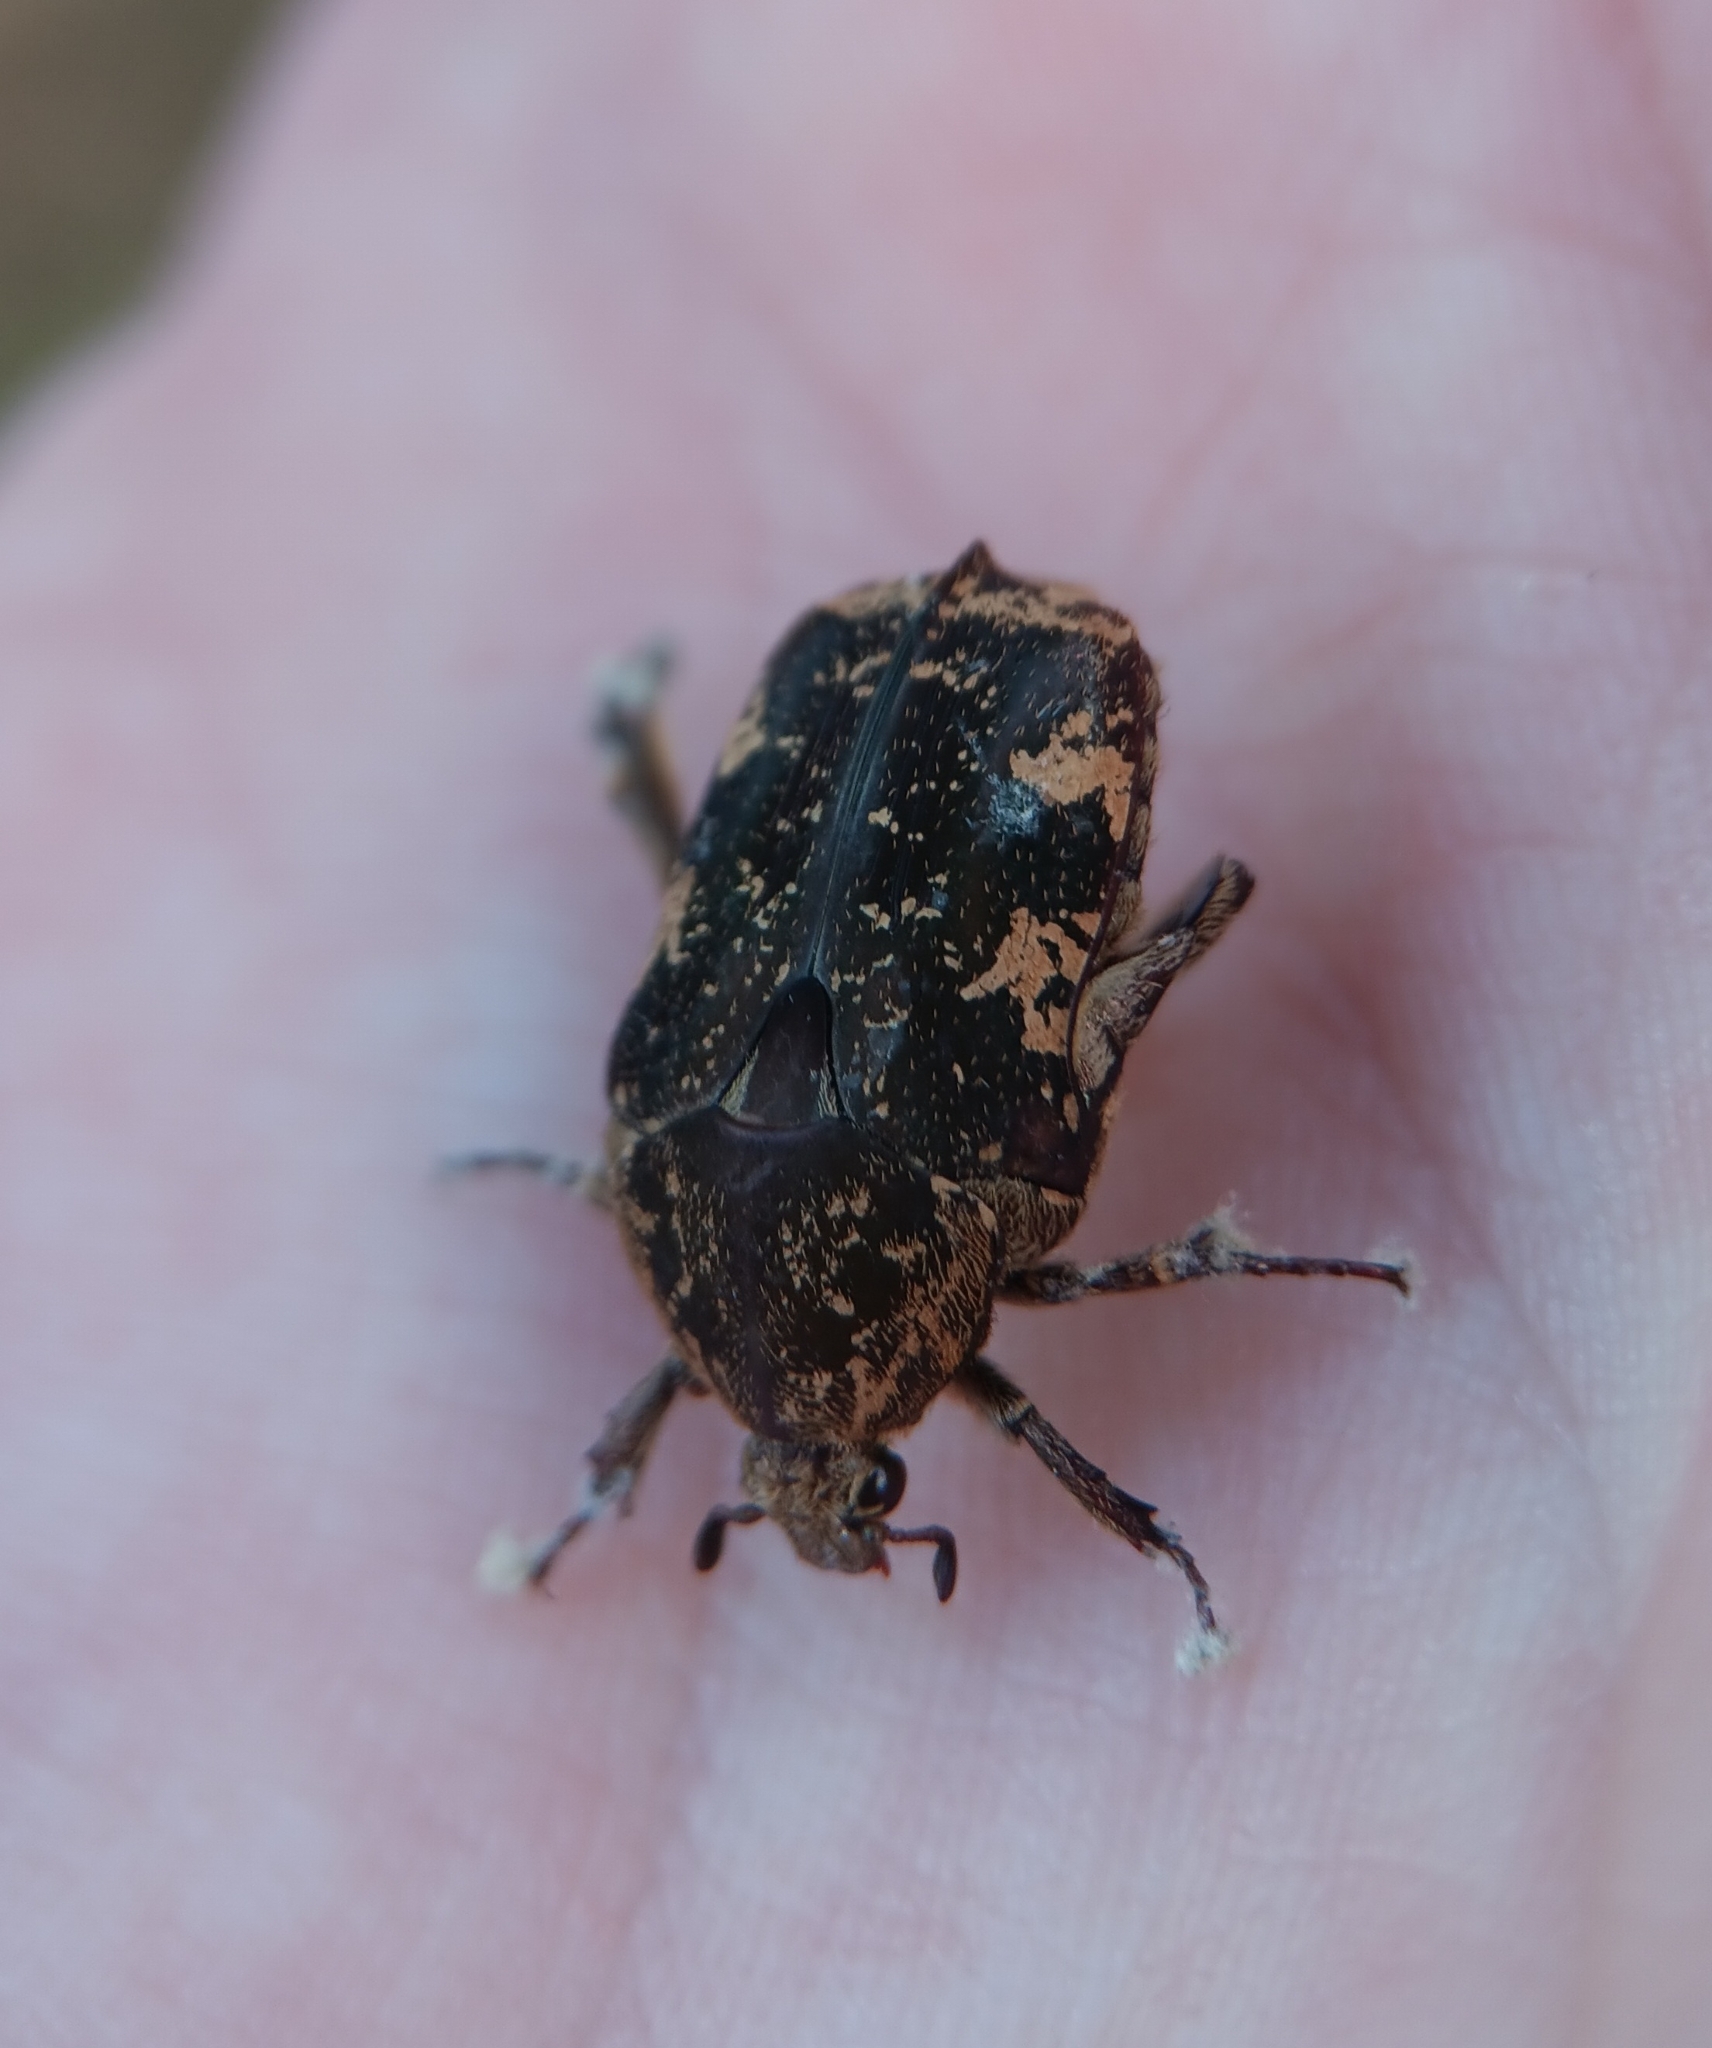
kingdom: Animalia
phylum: Arthropoda
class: Insecta
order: Coleoptera
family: Scarabaeidae
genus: Protaetia
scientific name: Protaetia fusca
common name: Mango flower beetle
